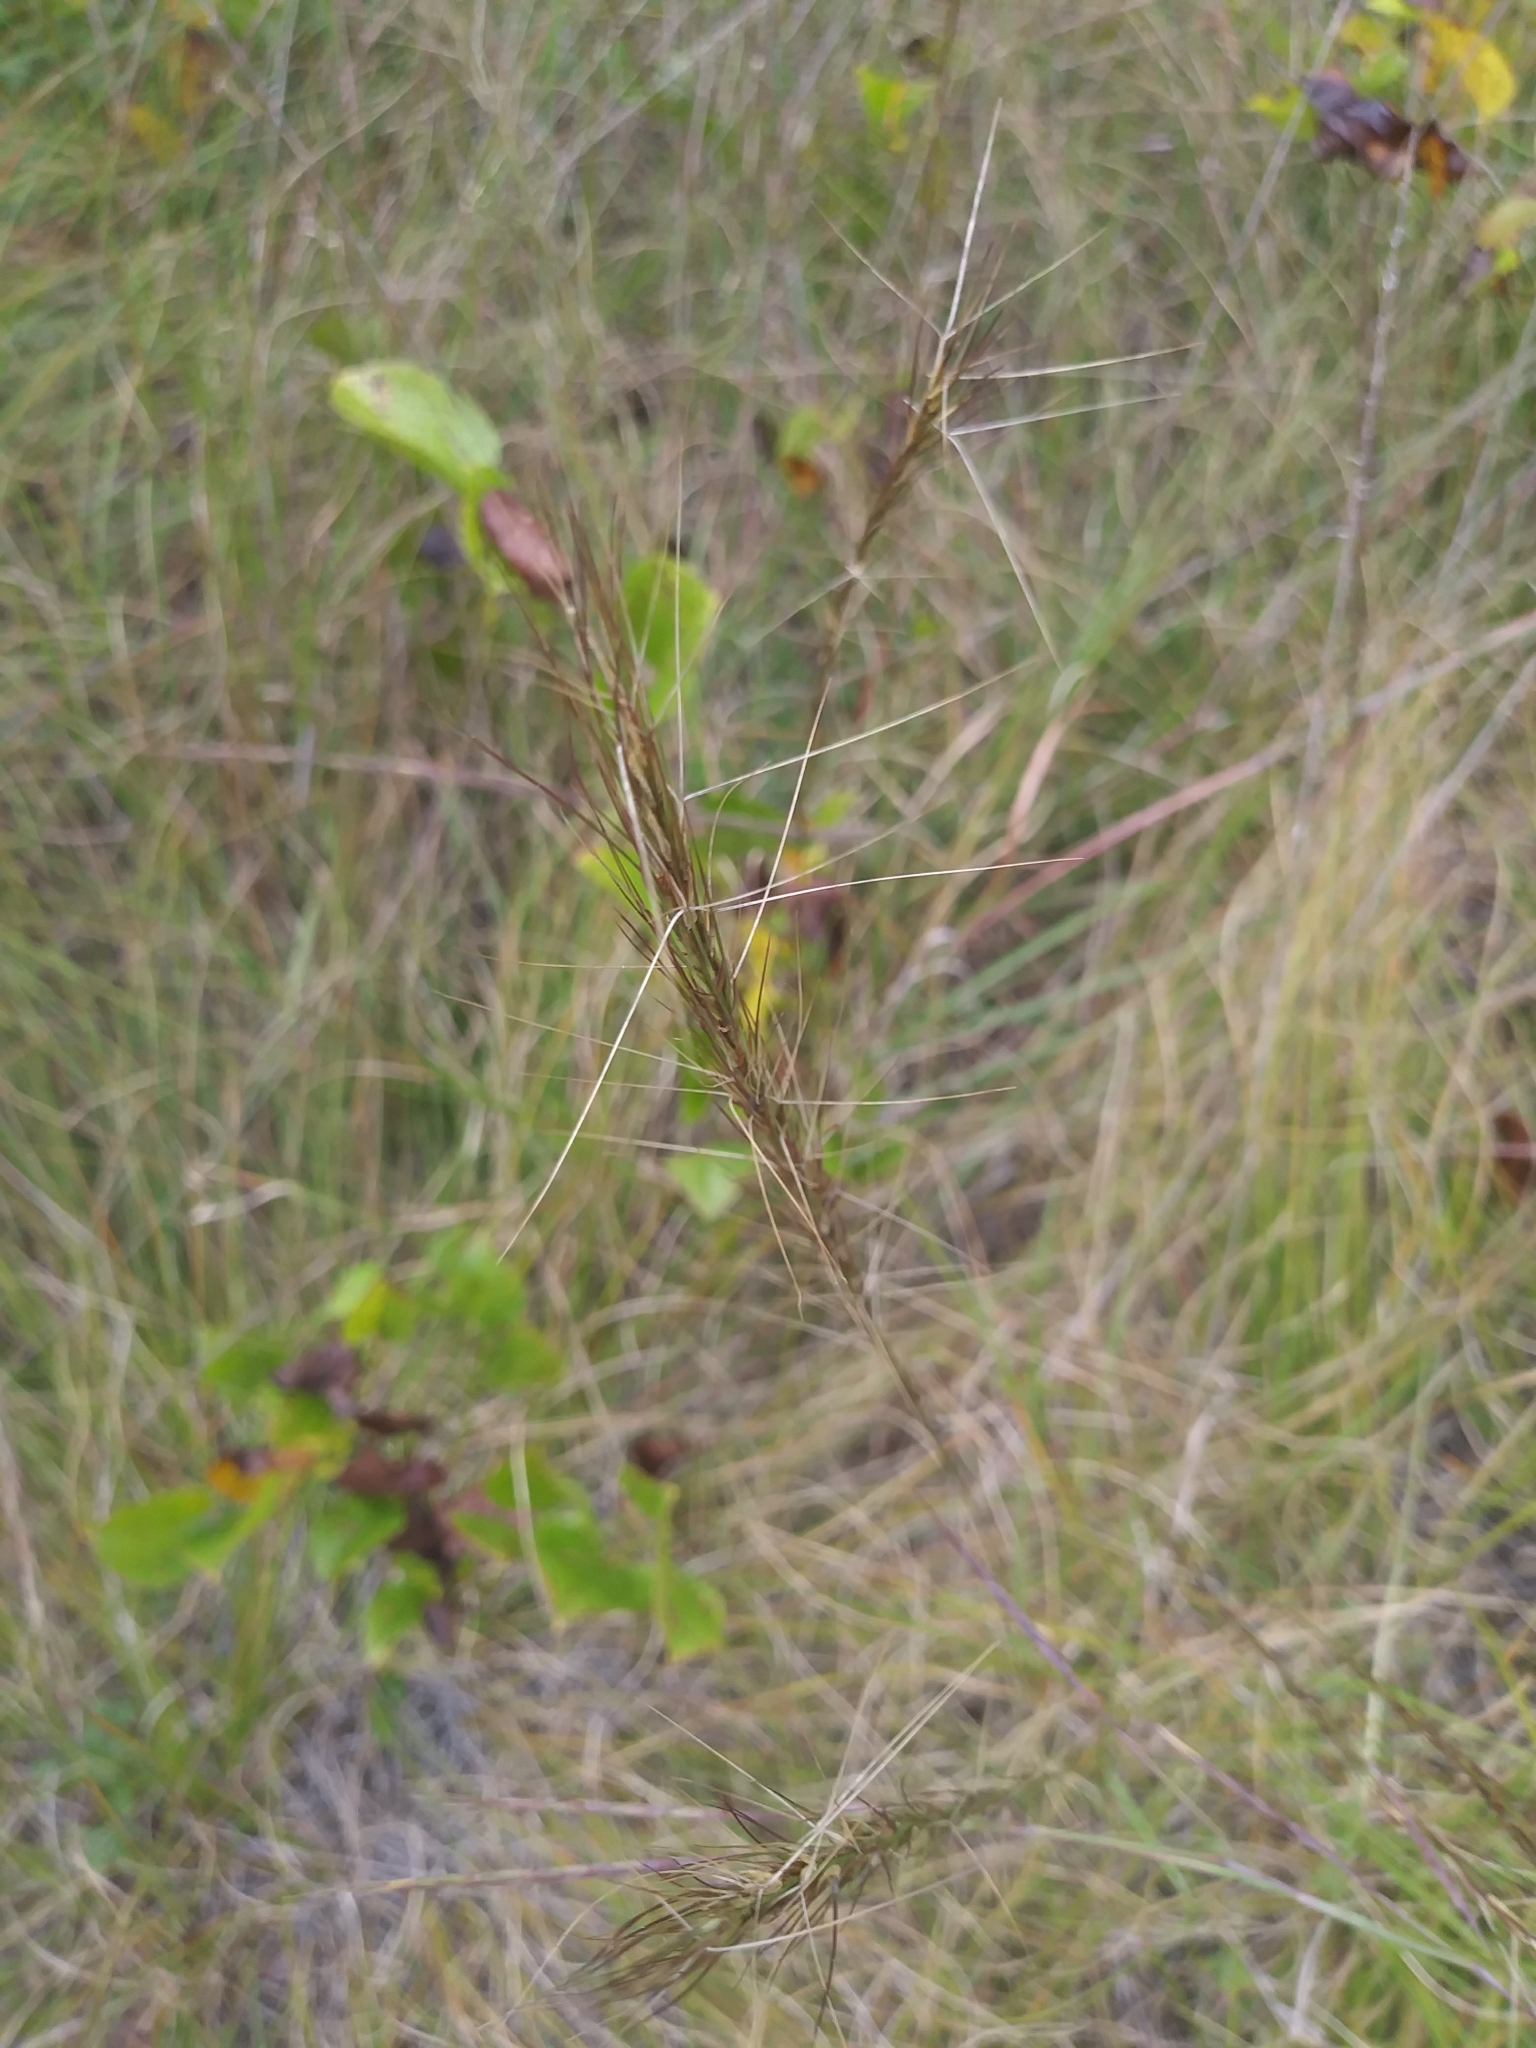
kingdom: Plantae
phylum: Tracheophyta
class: Liliopsida
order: Poales
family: Poaceae
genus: Aristida
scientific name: Aristida purpurascens
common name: Arrow-feather
